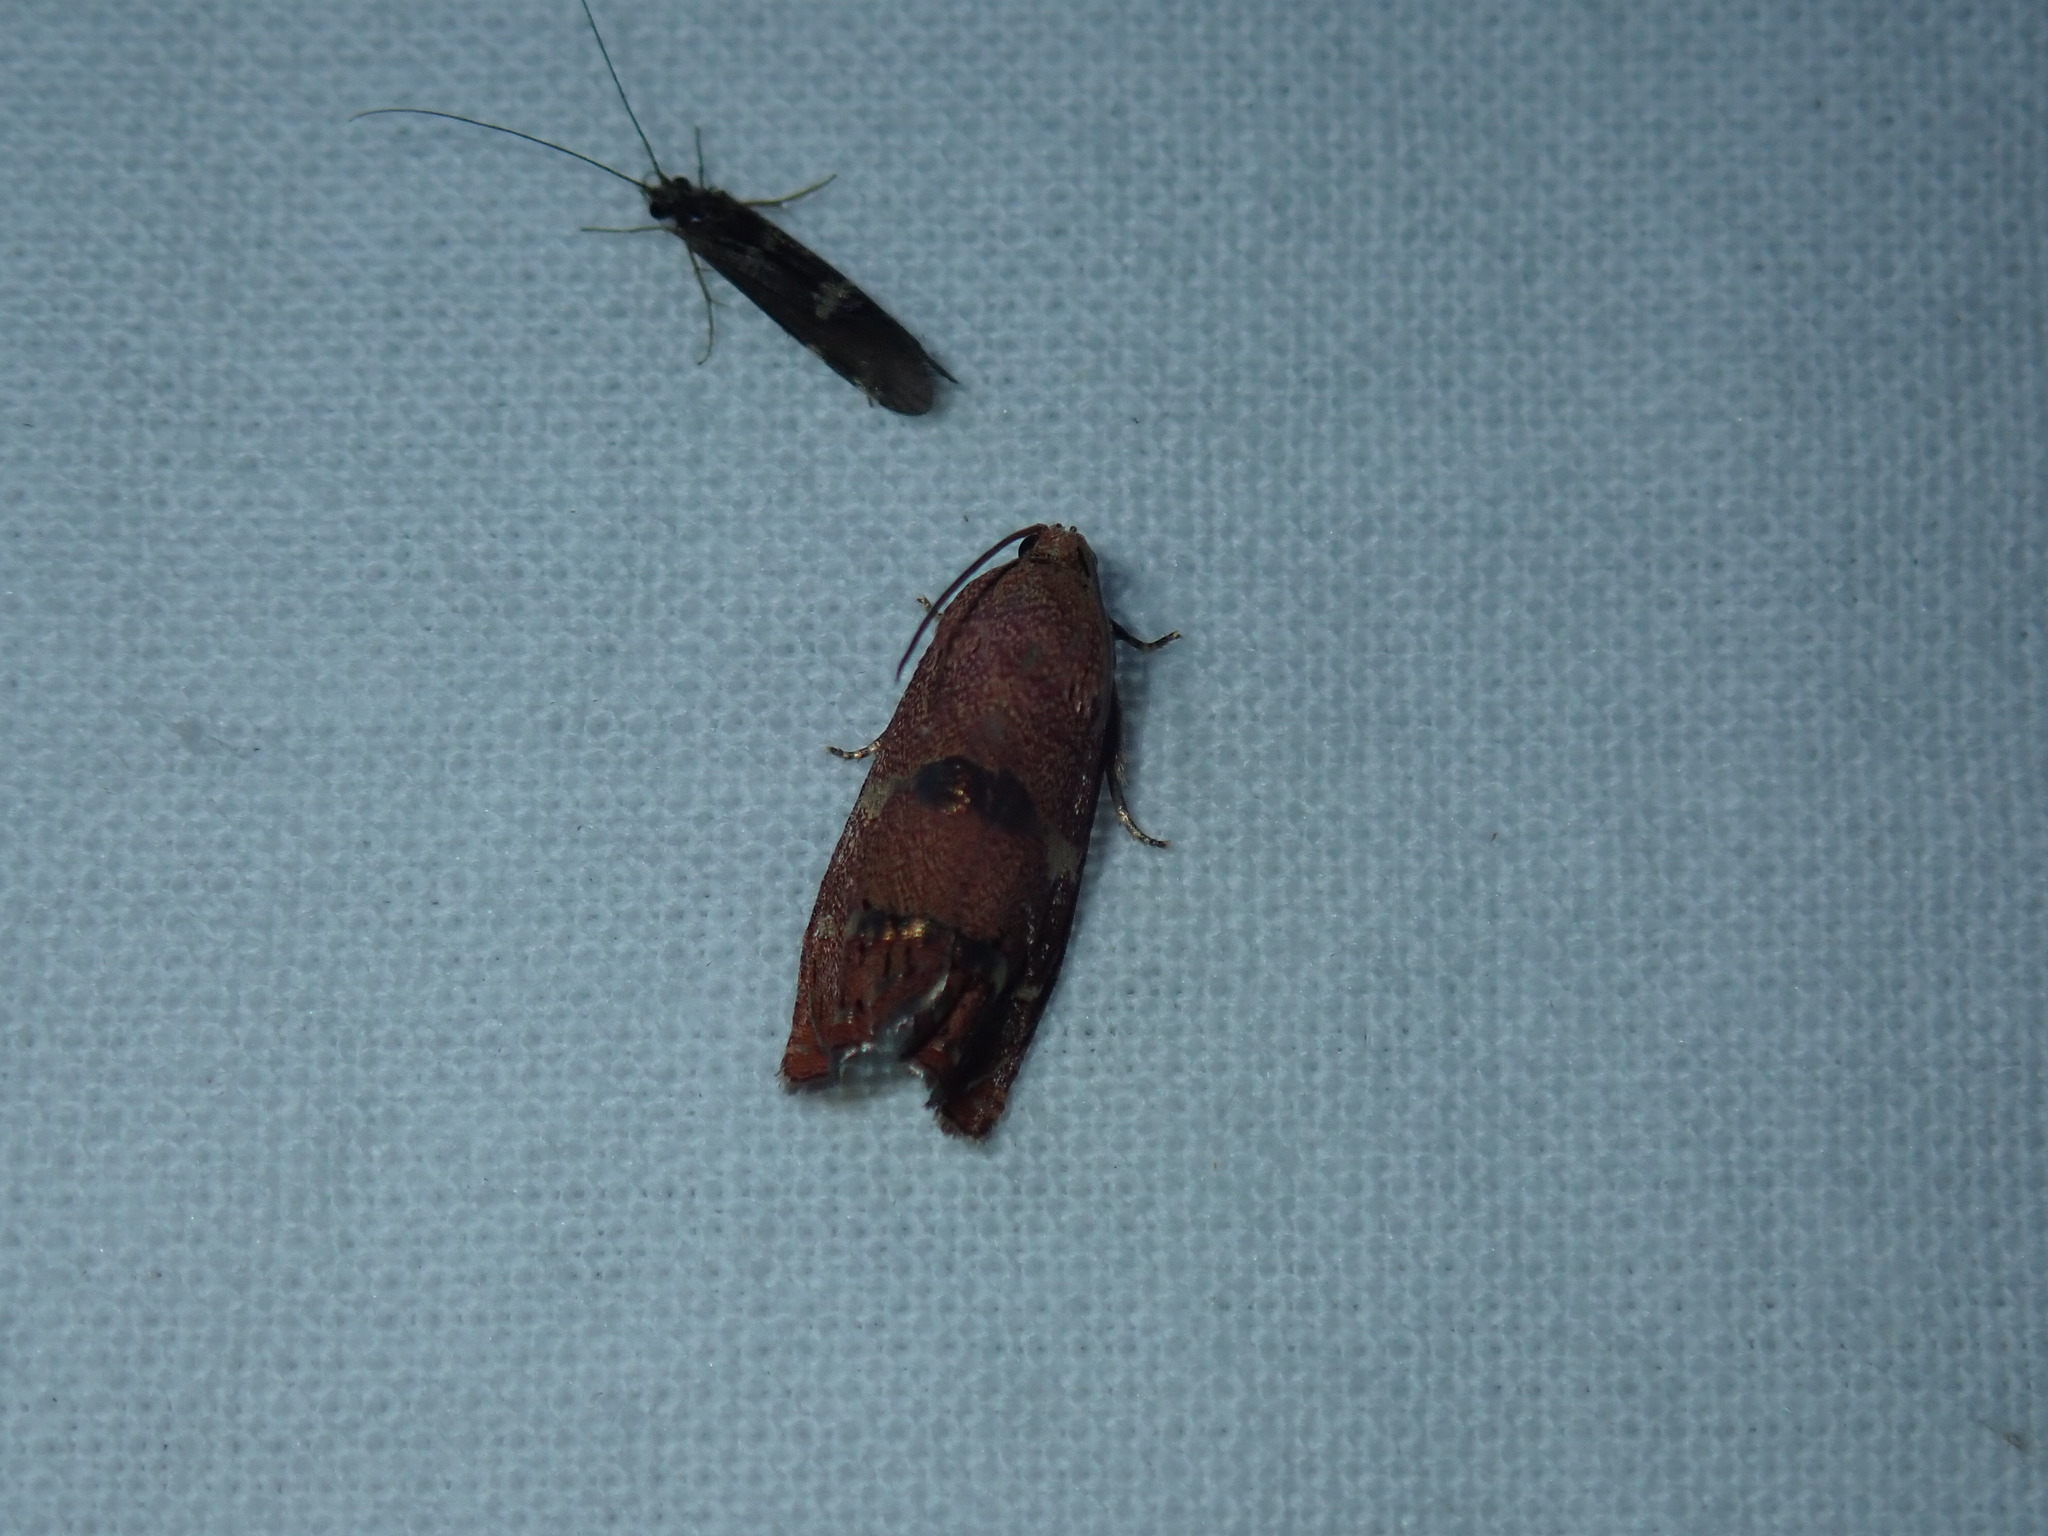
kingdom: Animalia
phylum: Arthropoda
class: Insecta
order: Lepidoptera
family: Tortricidae
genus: Cydia
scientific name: Cydia latiferreana
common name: Filbertworm moth
